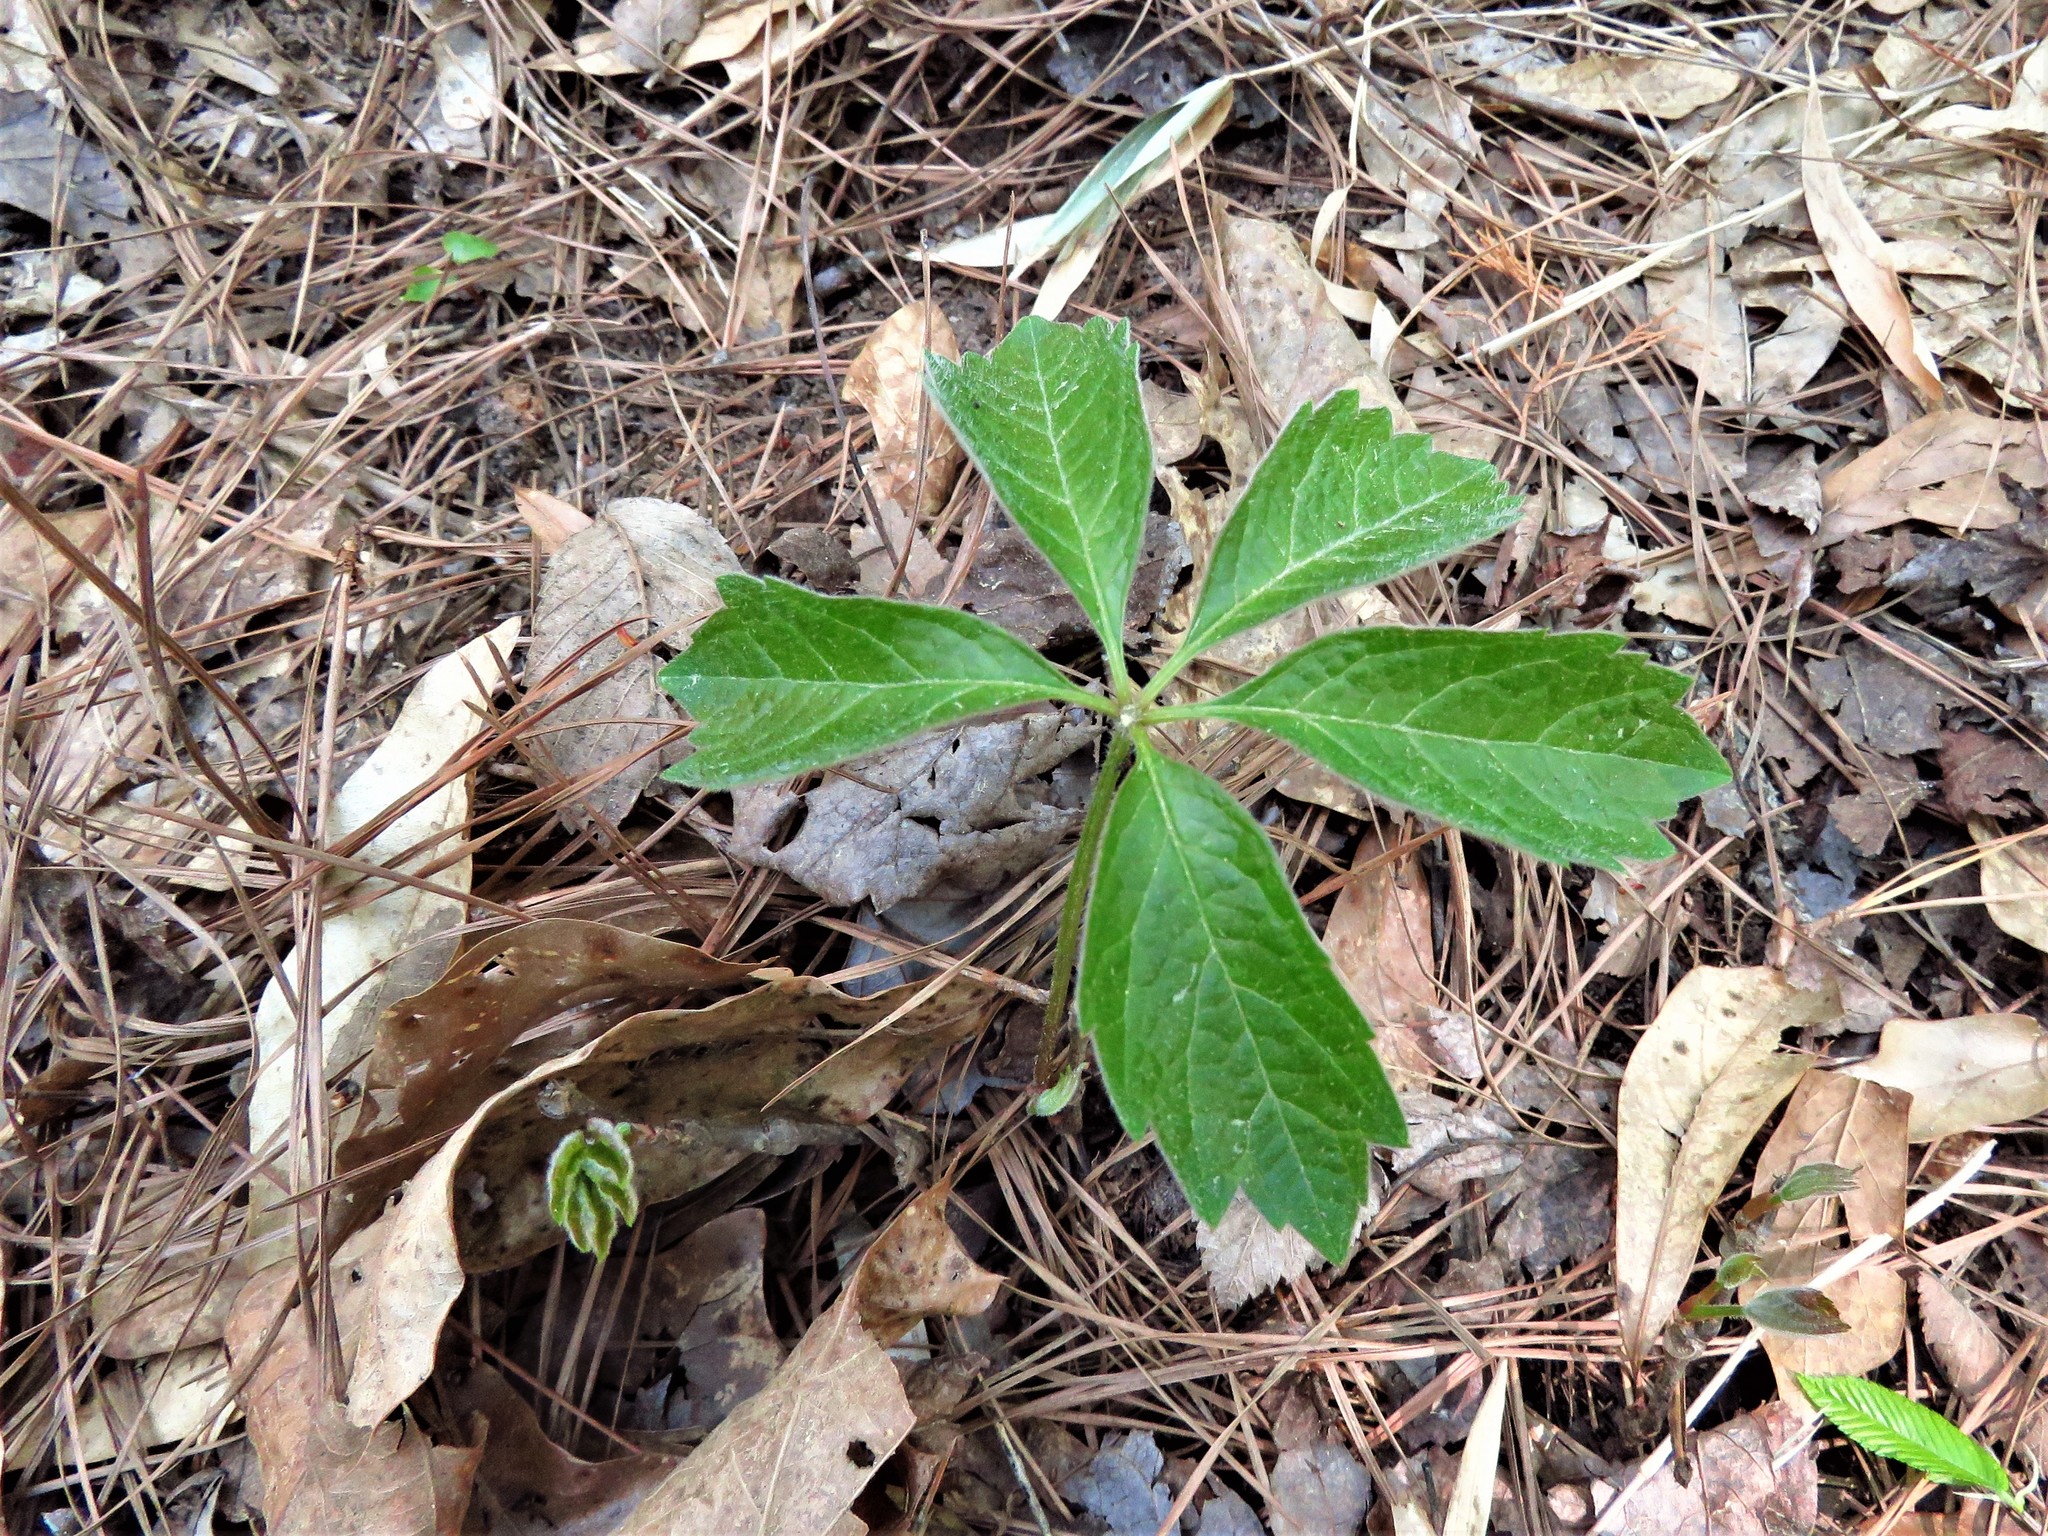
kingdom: Plantae
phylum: Tracheophyta
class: Magnoliopsida
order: Vitales
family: Vitaceae
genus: Parthenocissus
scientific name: Parthenocissus quinquefolia
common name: Virginia-creeper
